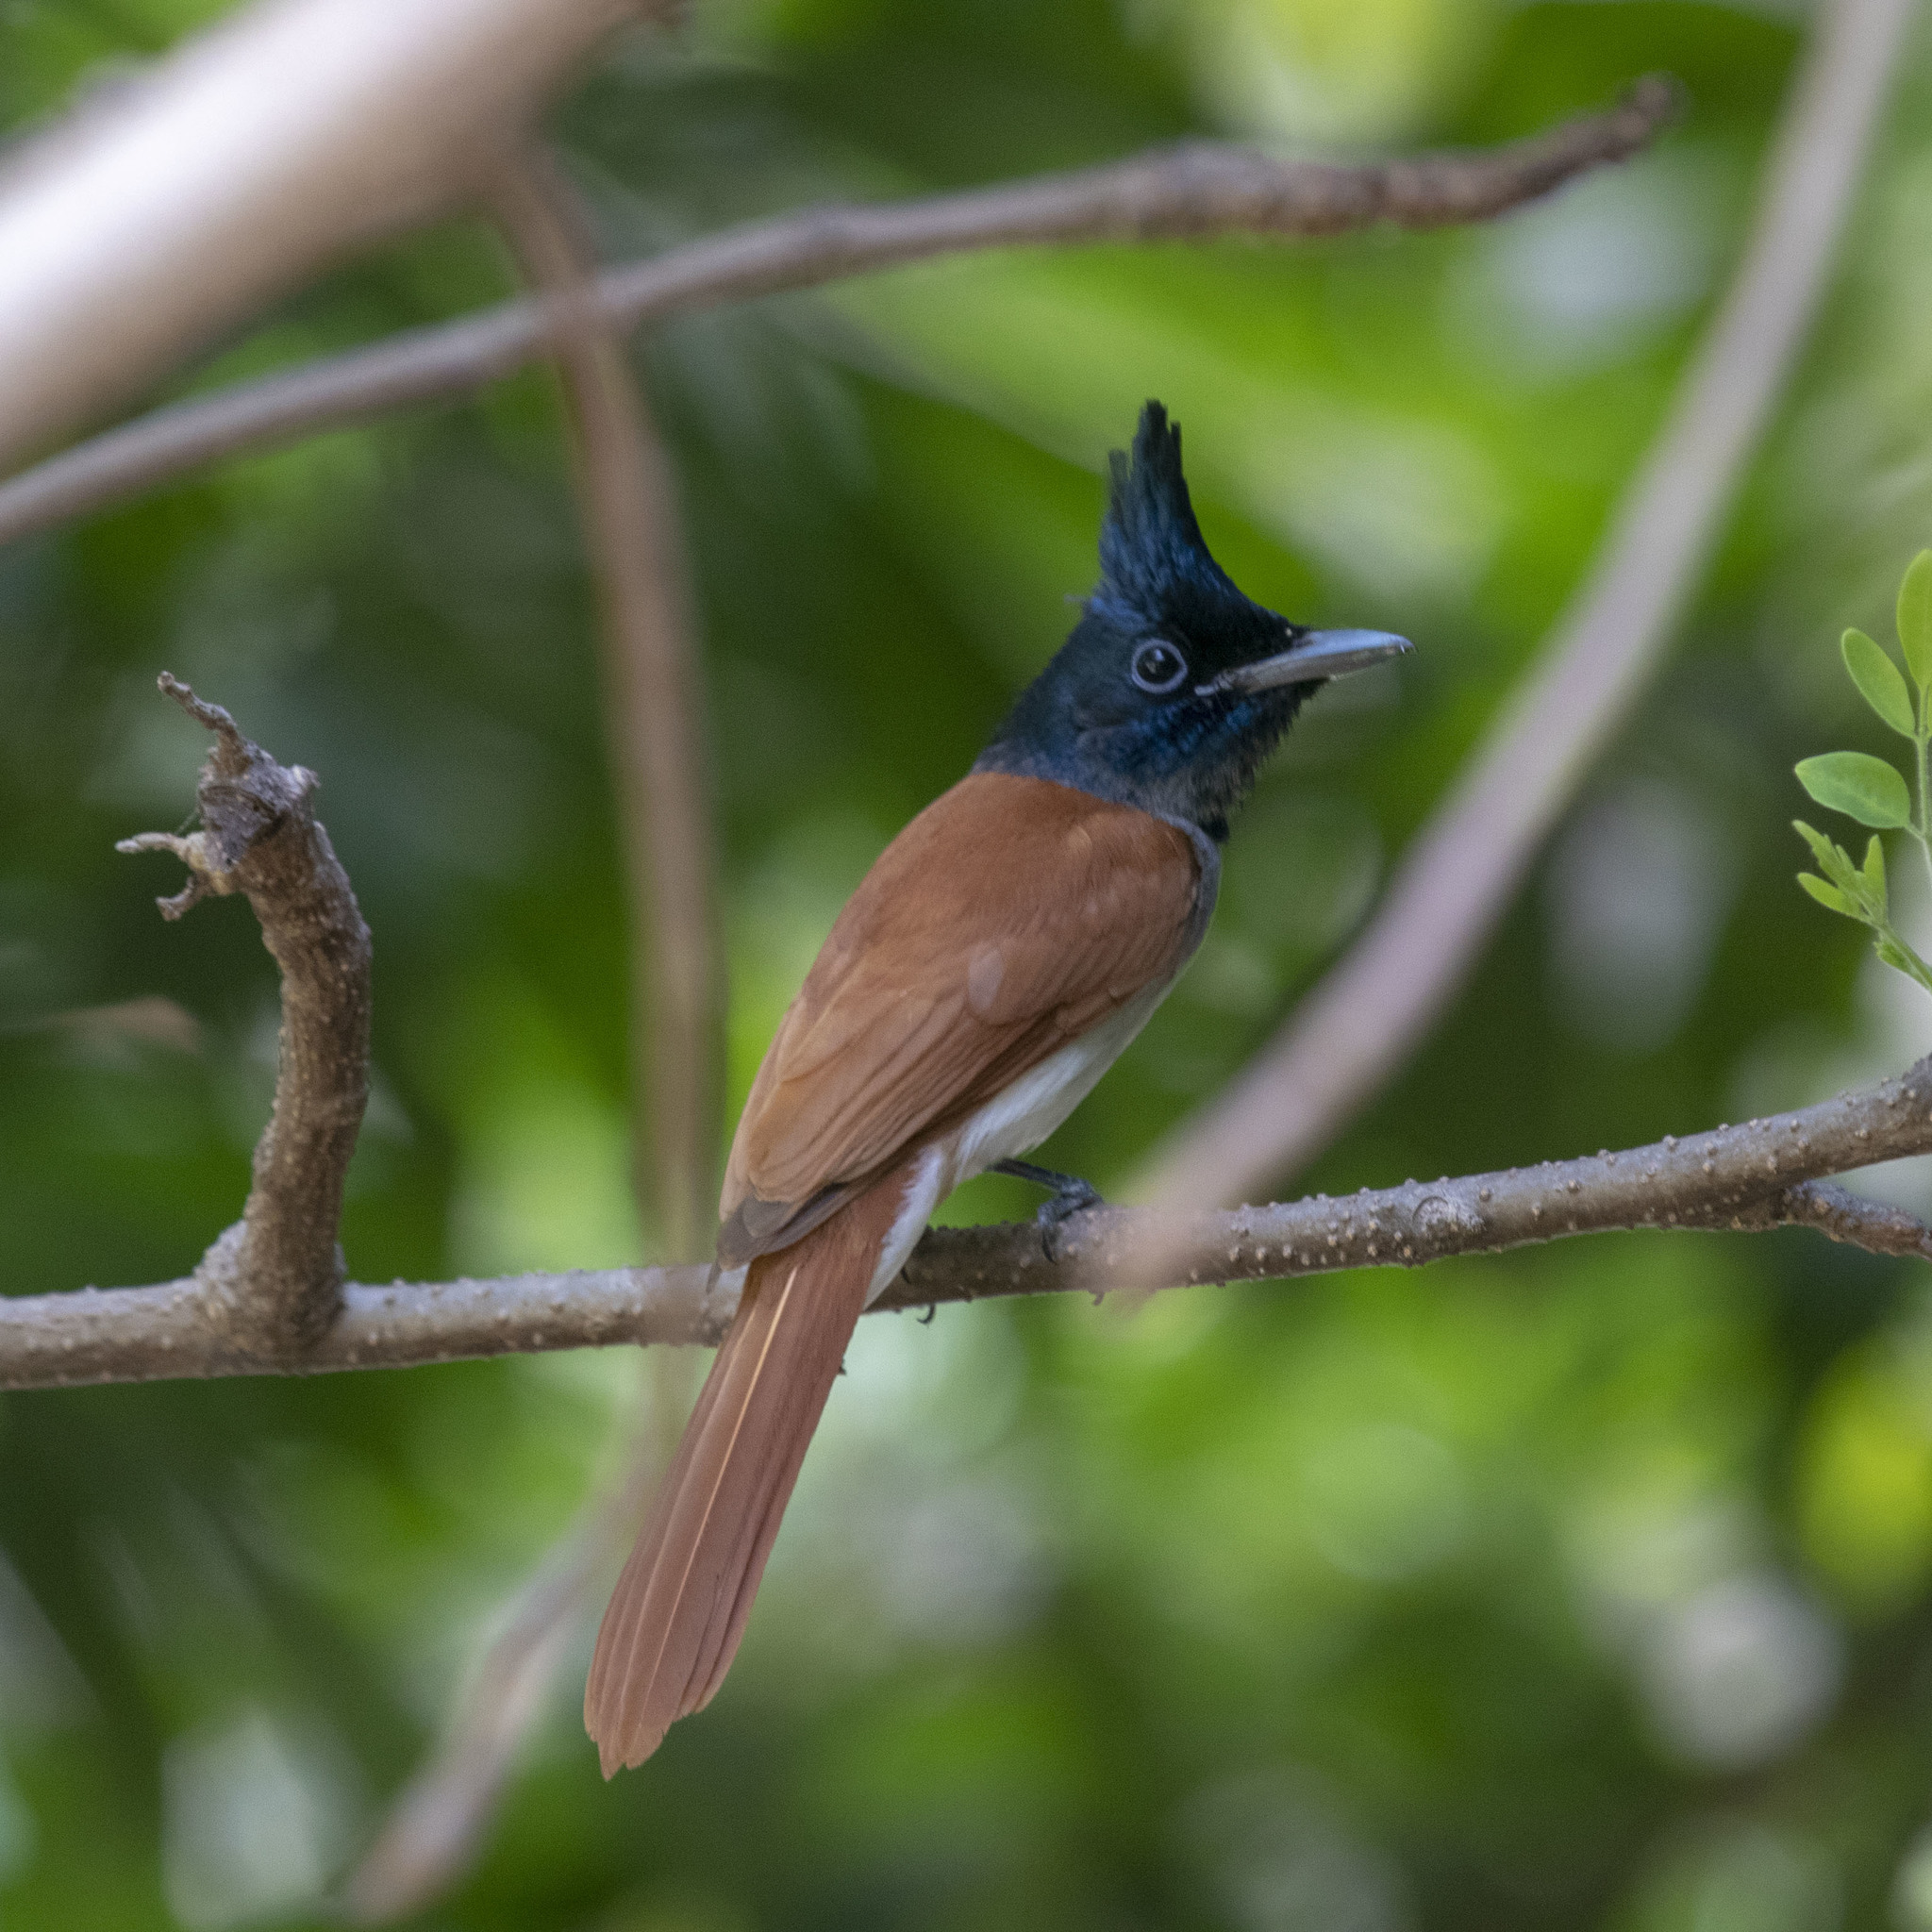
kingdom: Animalia
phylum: Chordata
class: Aves
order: Passeriformes
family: Monarchidae
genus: Terpsiphone
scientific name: Terpsiphone paradisi
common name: Indian paradise flycatcher
